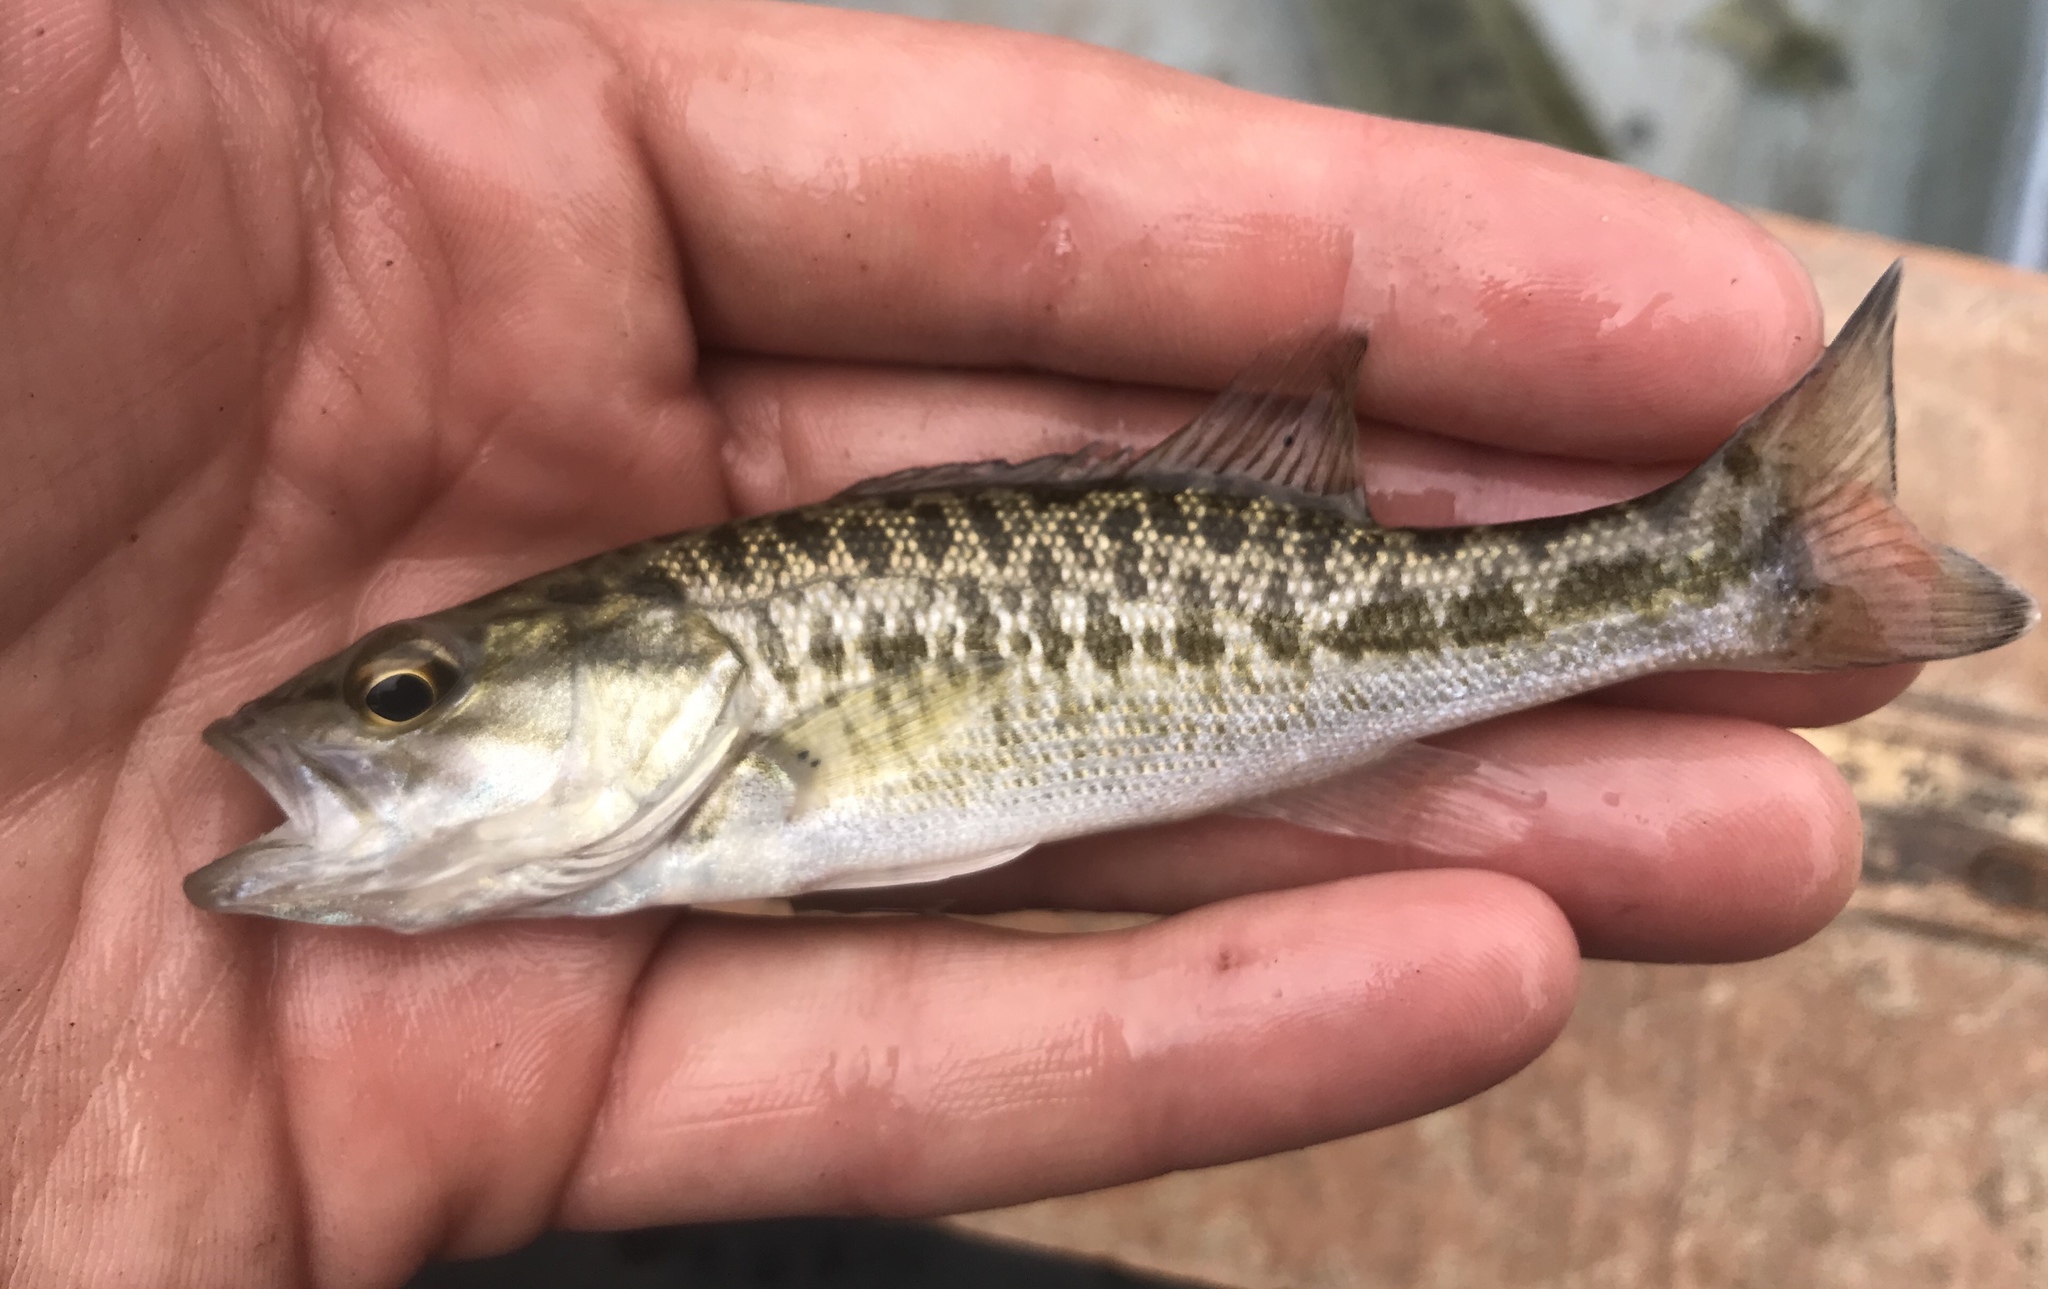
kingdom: Animalia
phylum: Chordata
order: Perciformes
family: Centrarchidae
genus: Micropterus
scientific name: Micropterus treculii
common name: Guadalupe bass
